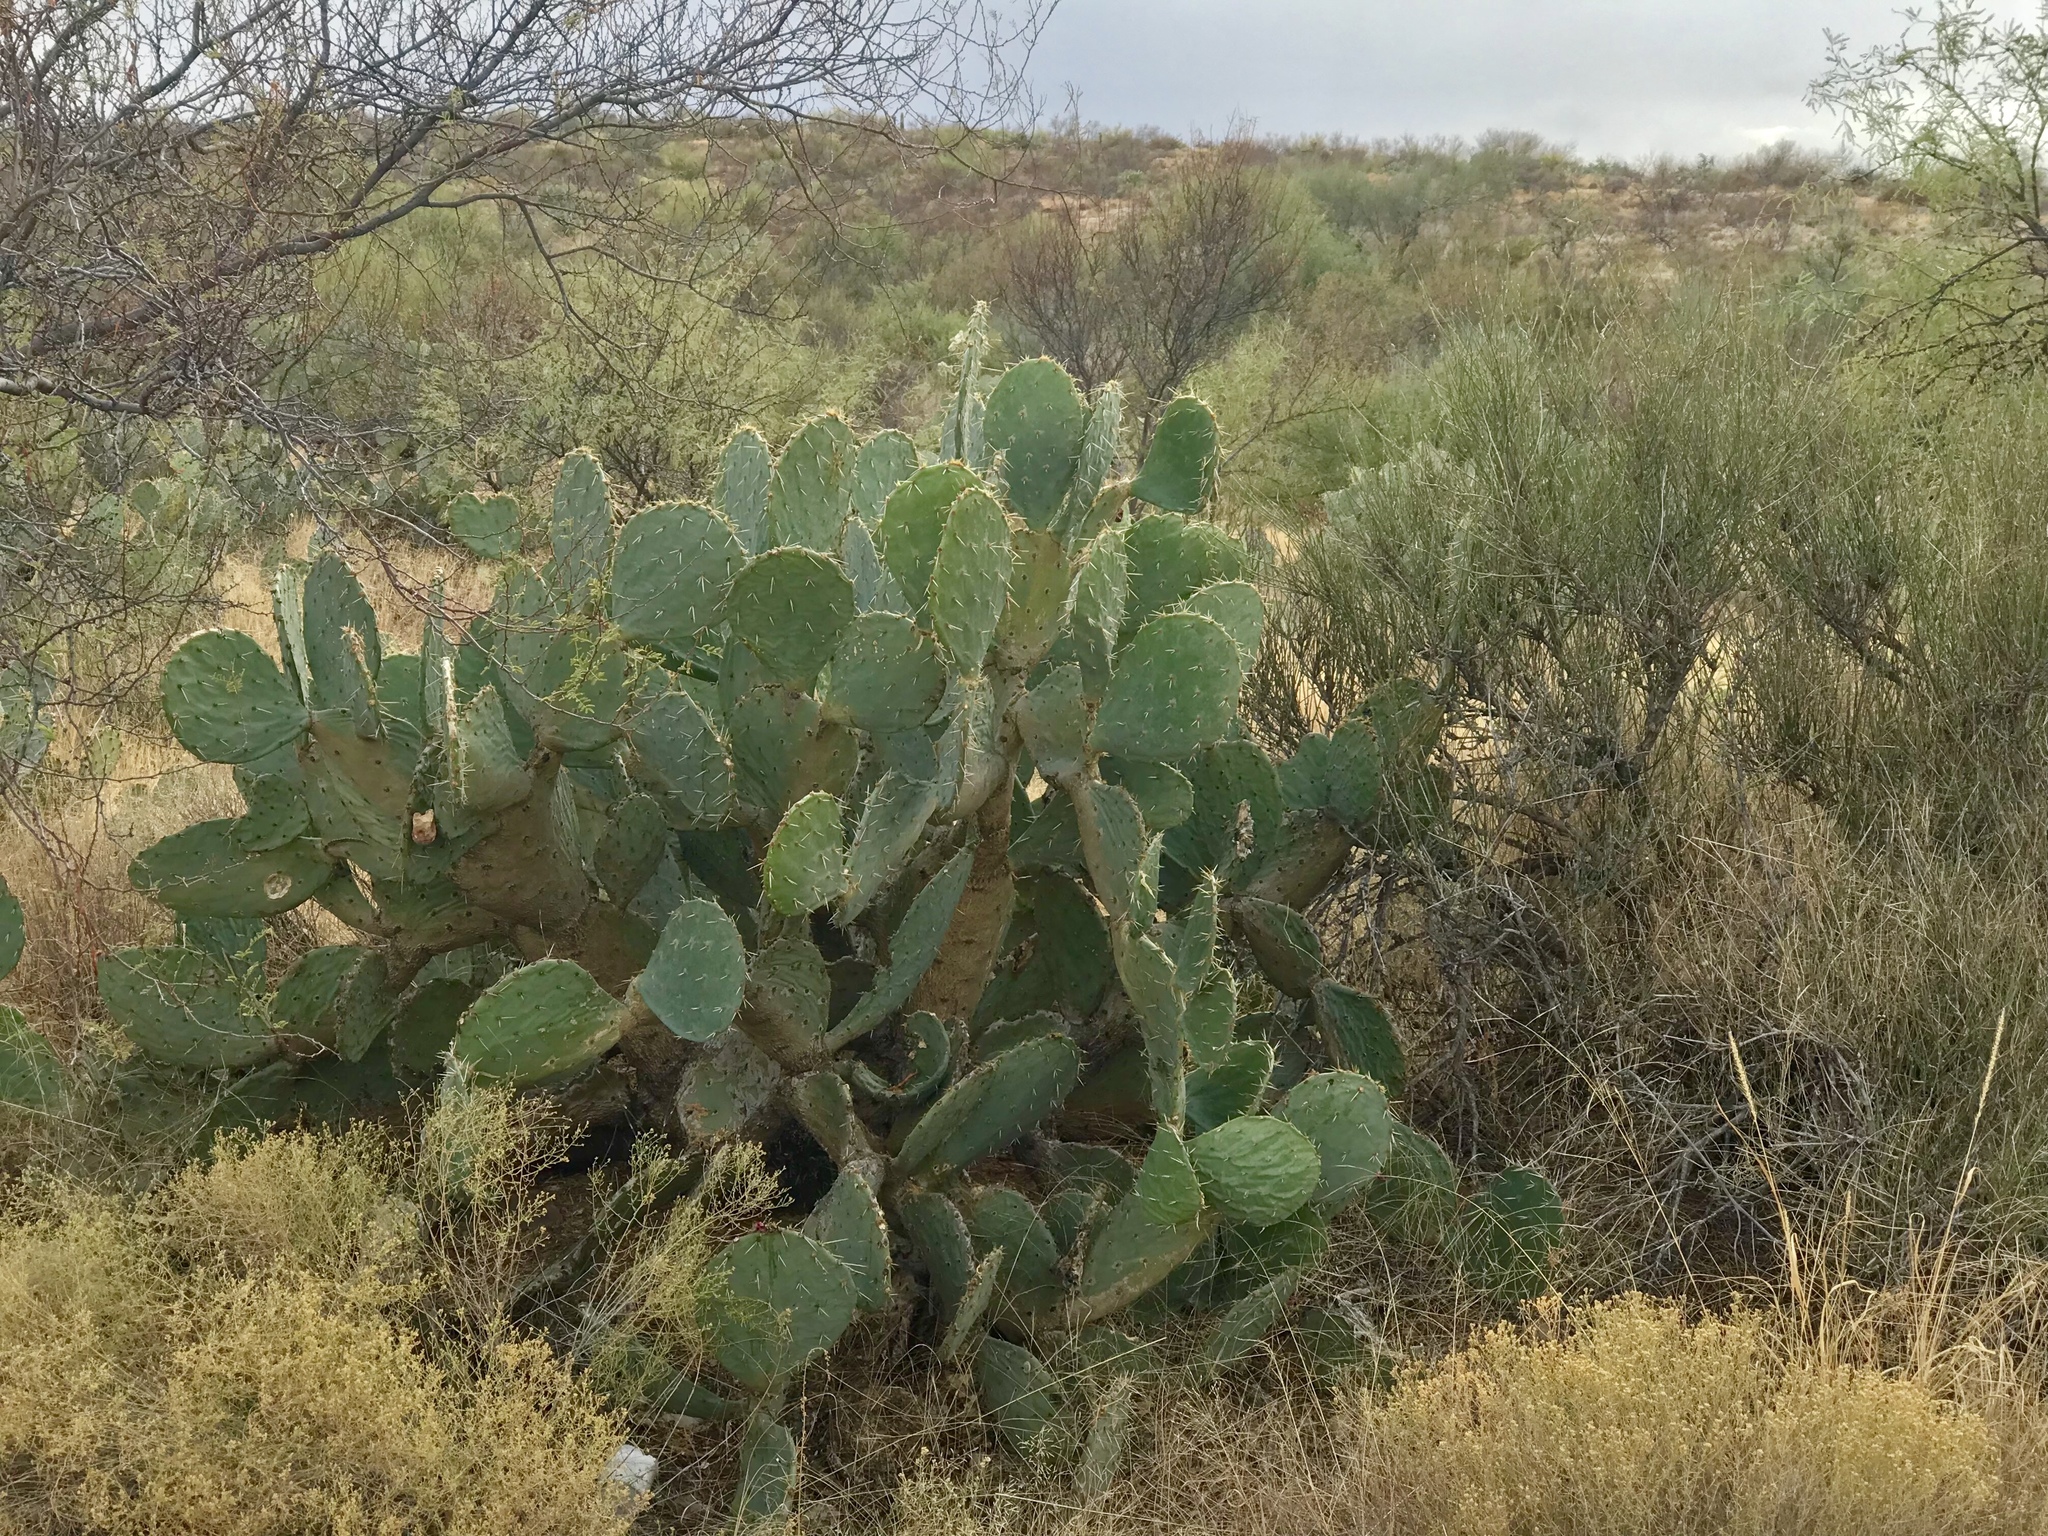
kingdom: Plantae
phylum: Tracheophyta
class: Magnoliopsida
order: Caryophyllales
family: Cactaceae
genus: Opuntia
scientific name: Opuntia engelmannii
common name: Cactus-apple
